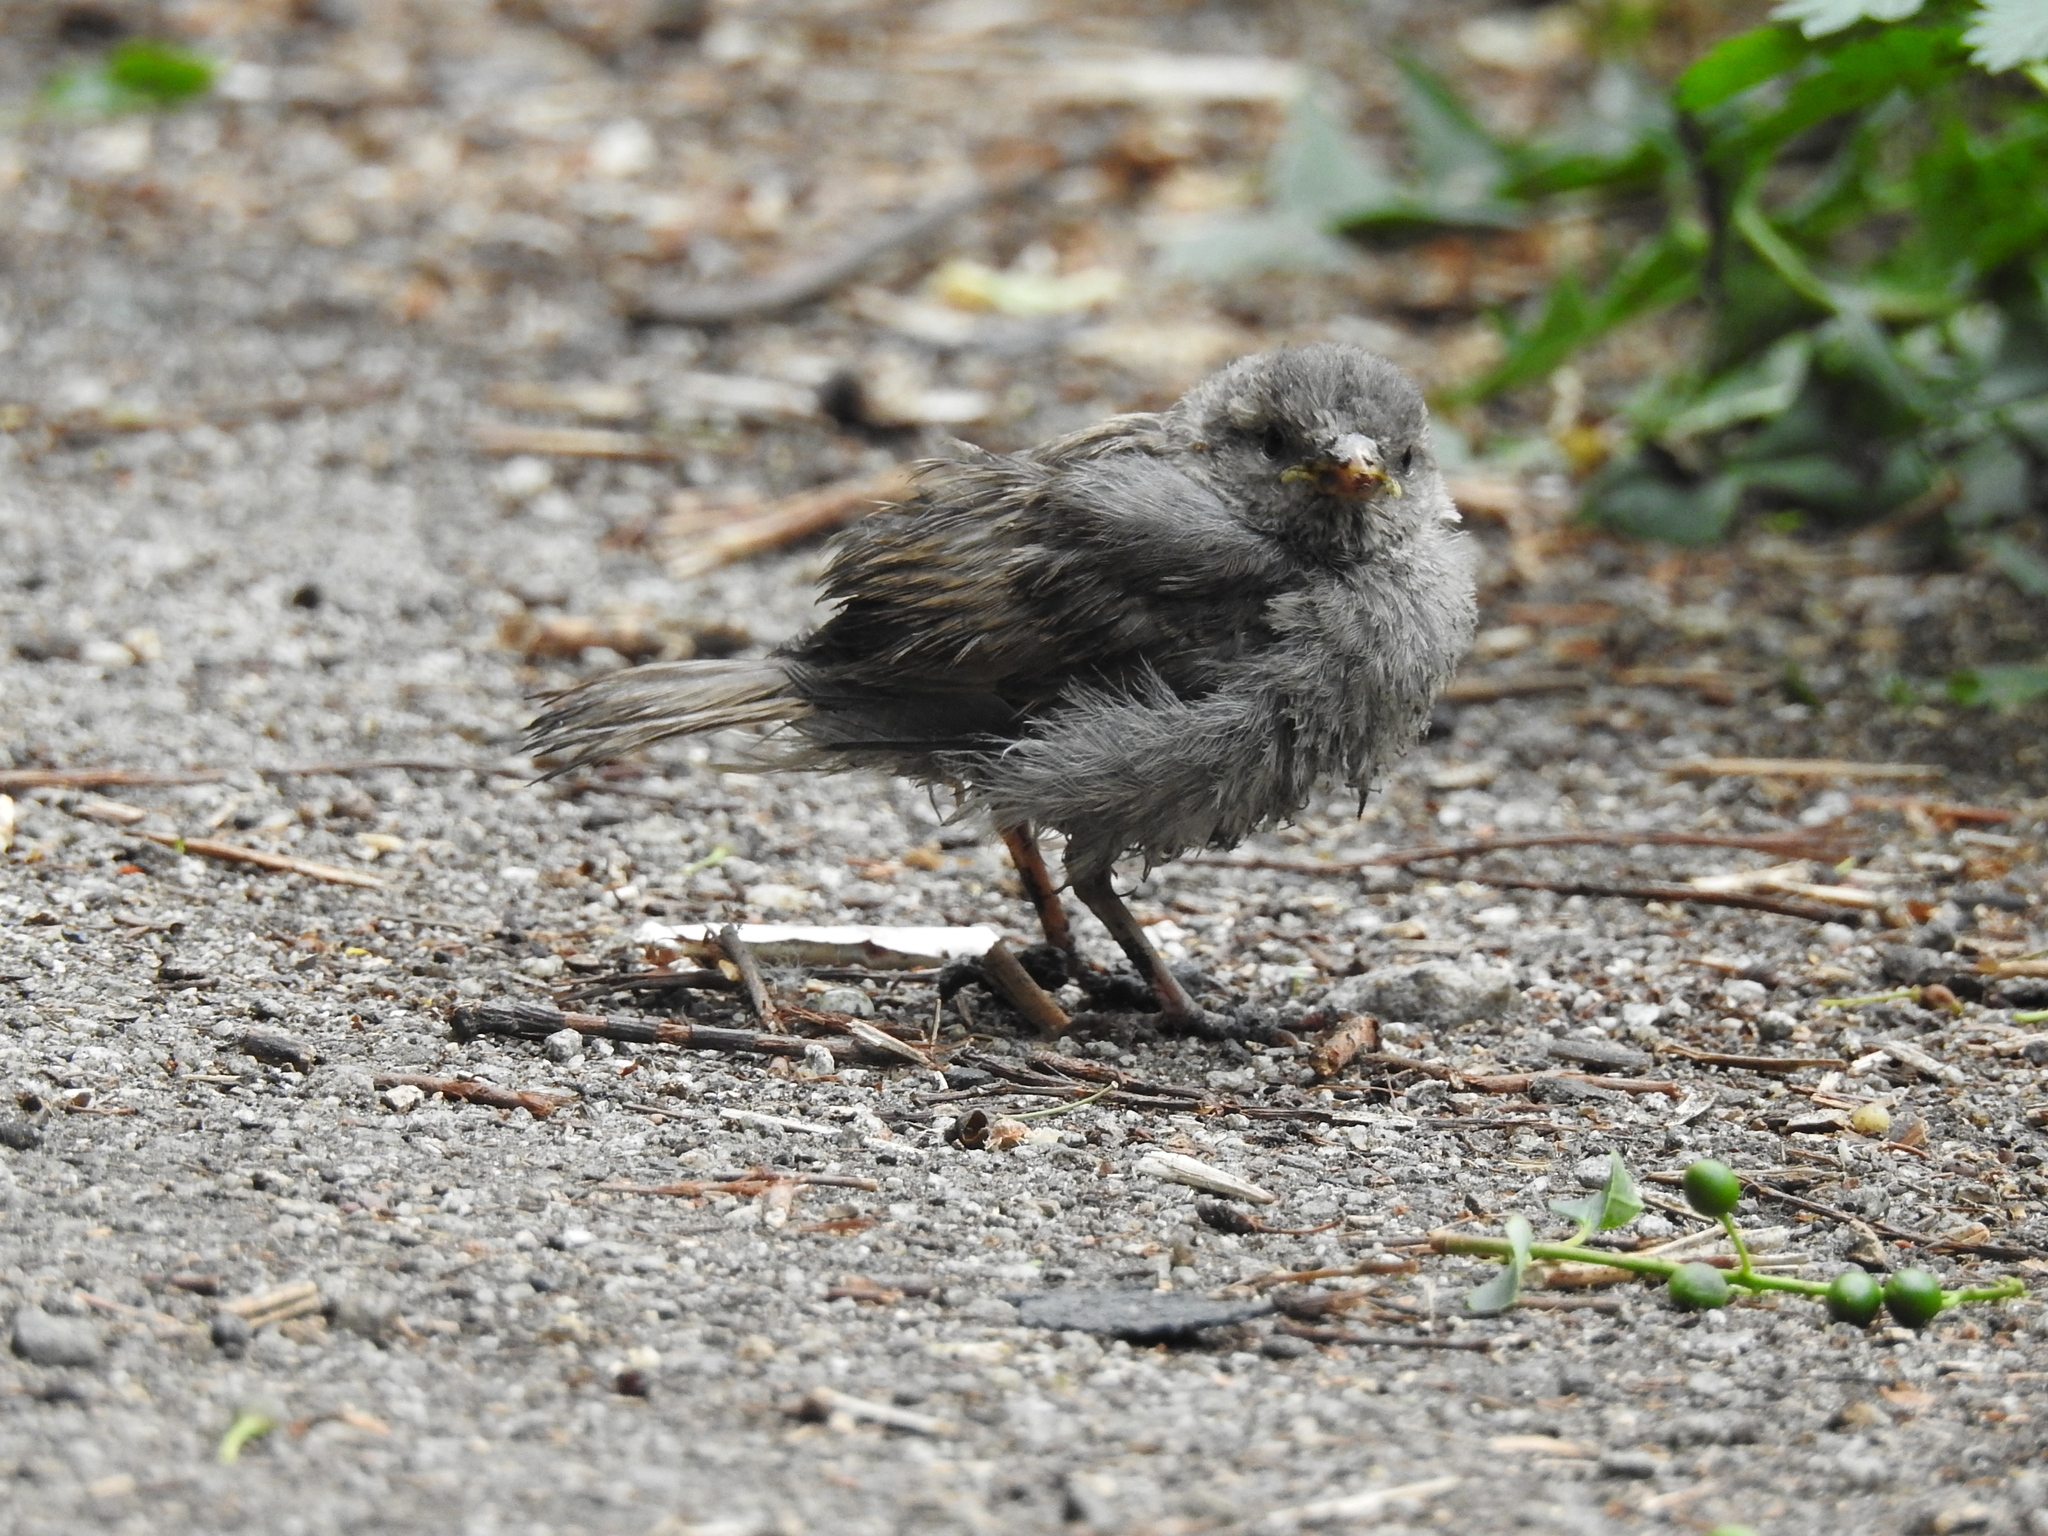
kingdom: Animalia
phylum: Chordata
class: Aves
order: Passeriformes
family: Passeridae
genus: Passer
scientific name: Passer domesticus
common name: House sparrow
